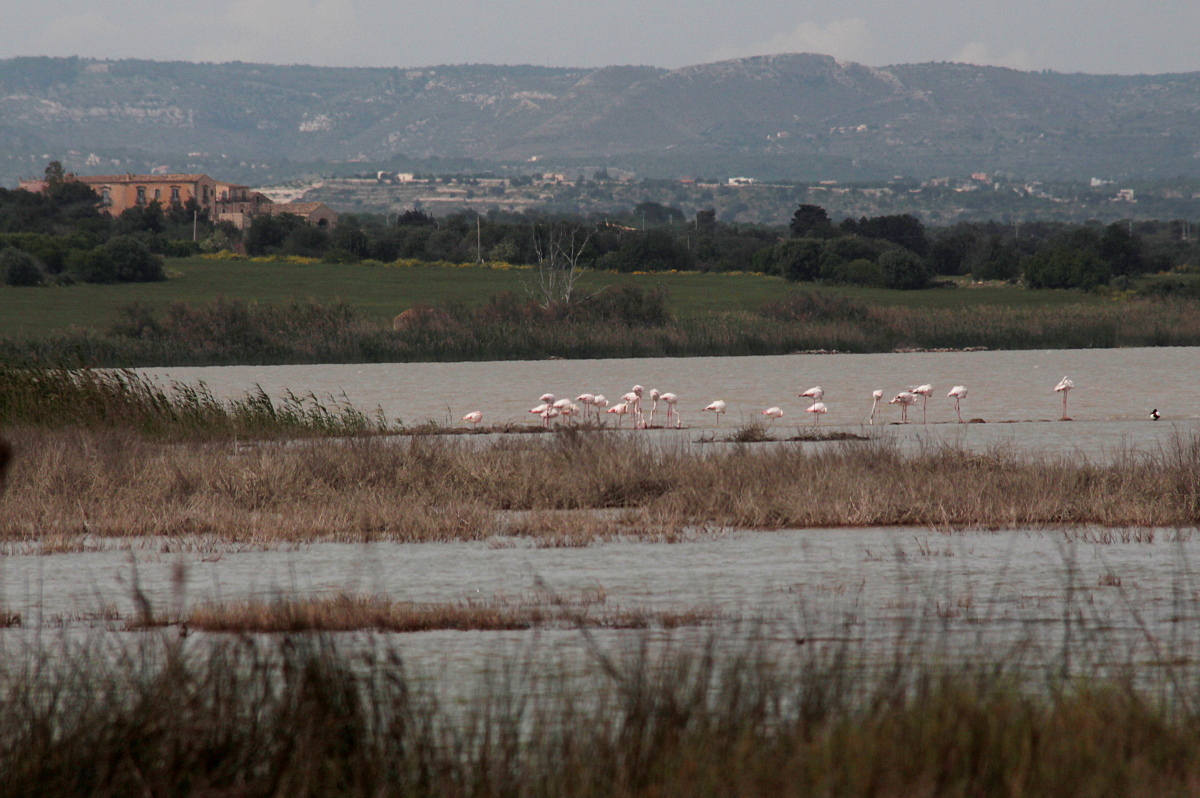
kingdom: Animalia
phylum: Chordata
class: Aves
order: Phoenicopteriformes
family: Phoenicopteridae
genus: Phoenicopterus
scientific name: Phoenicopterus roseus
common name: Greater flamingo
